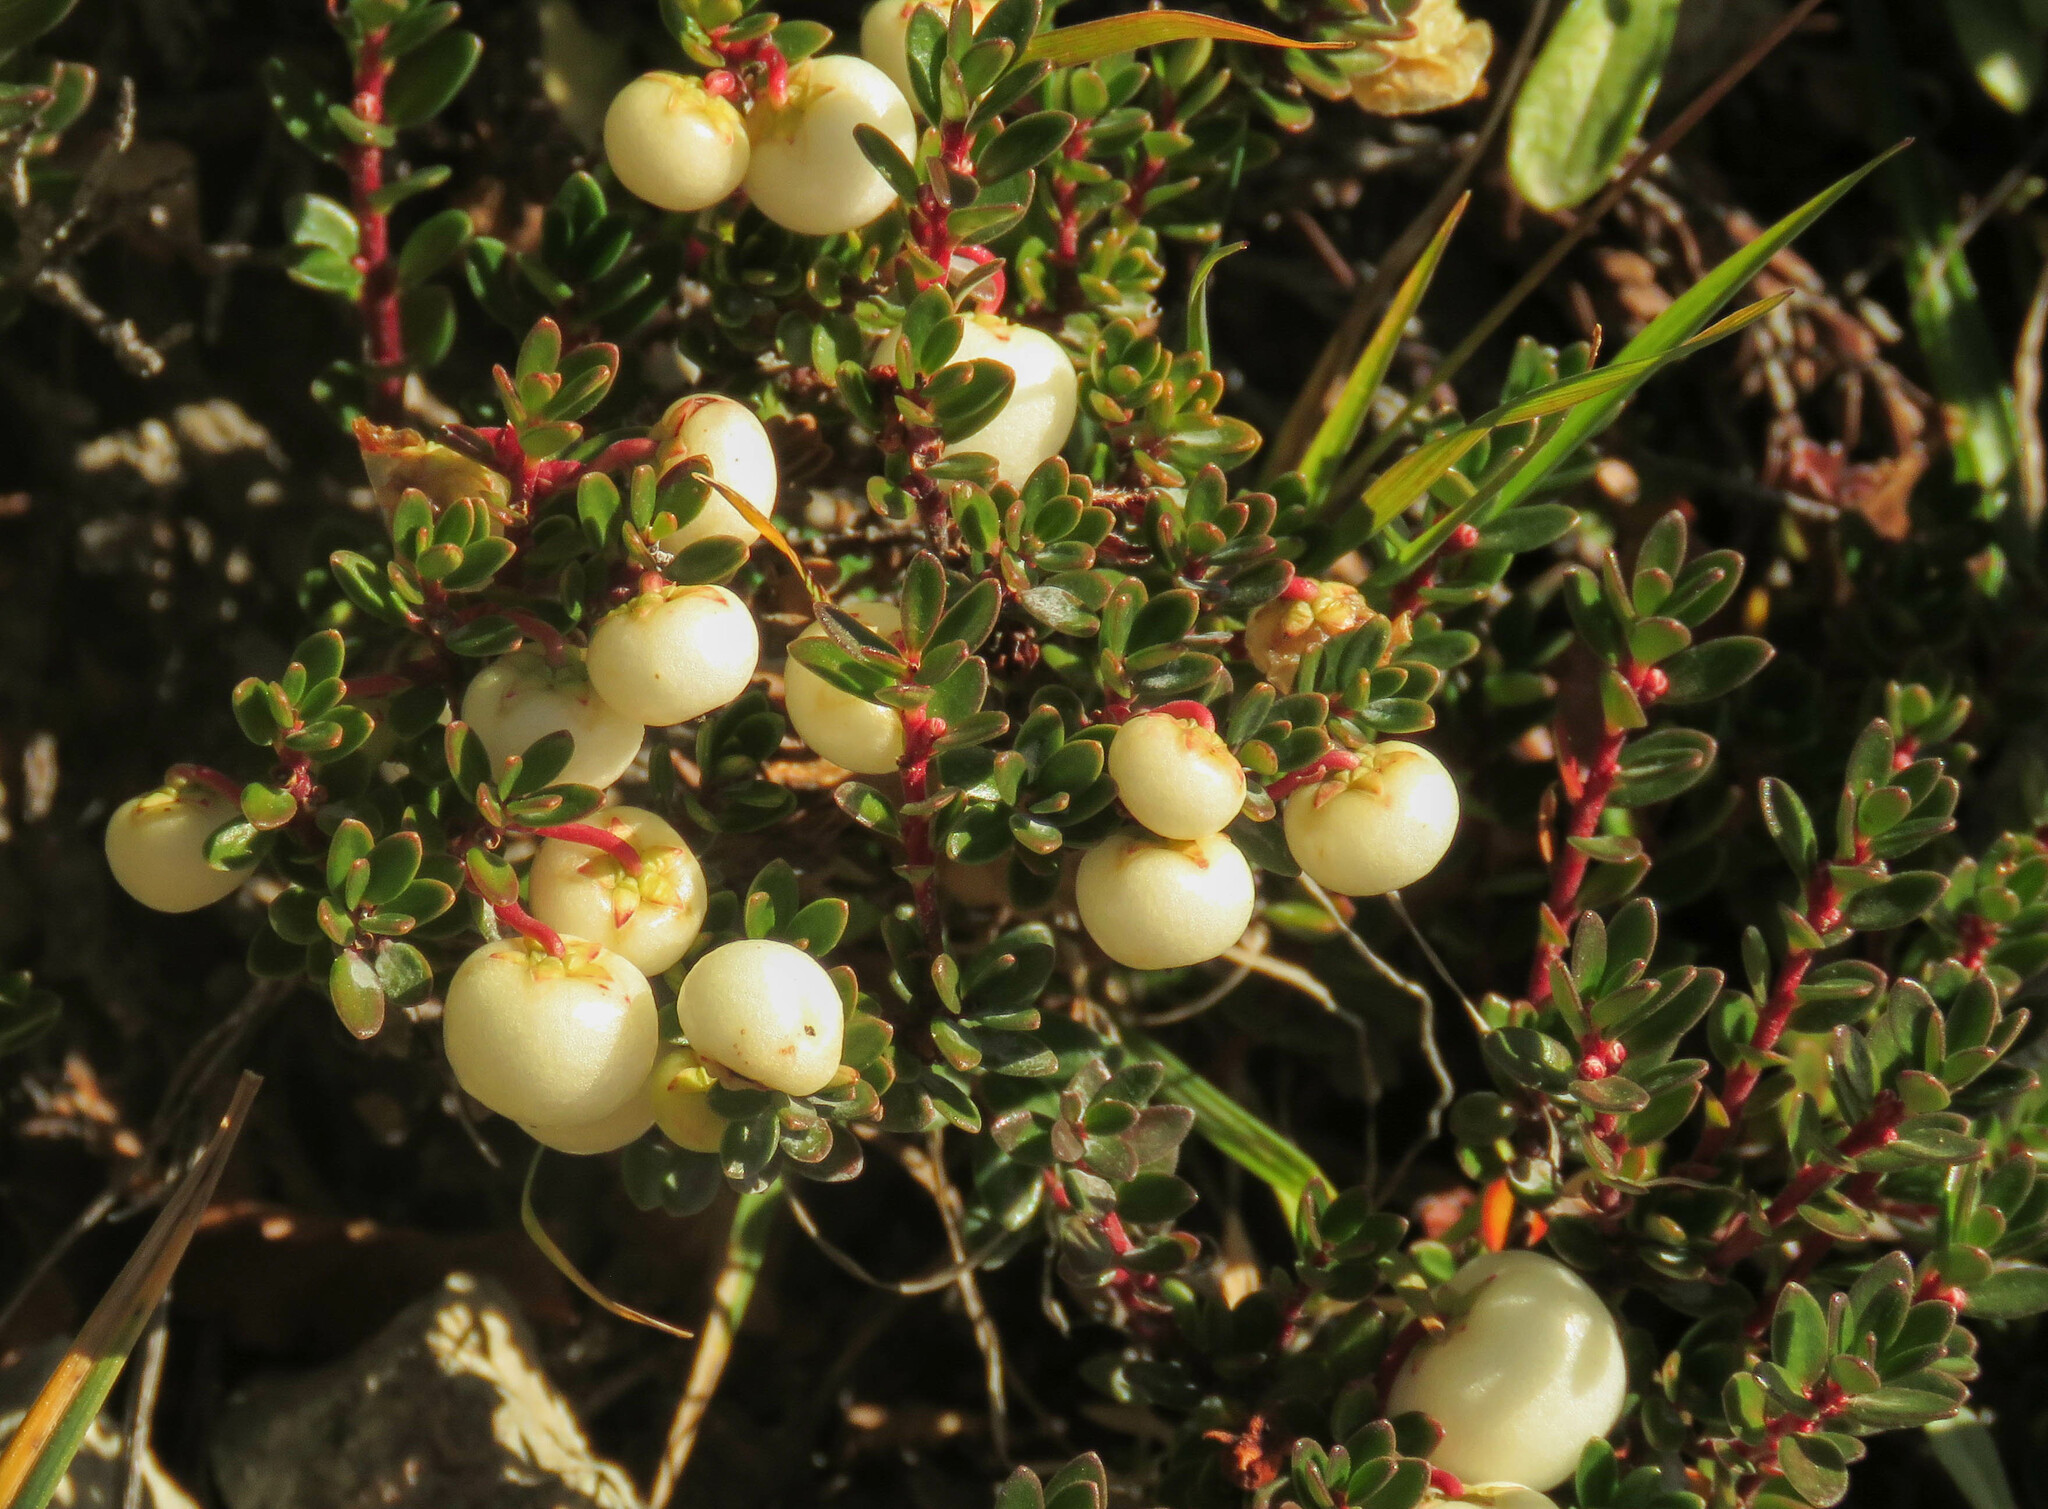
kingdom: Plantae
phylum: Tracheophyta
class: Magnoliopsida
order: Ericales
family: Ericaceae
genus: Gaultheria
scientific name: Gaultheria pumila
